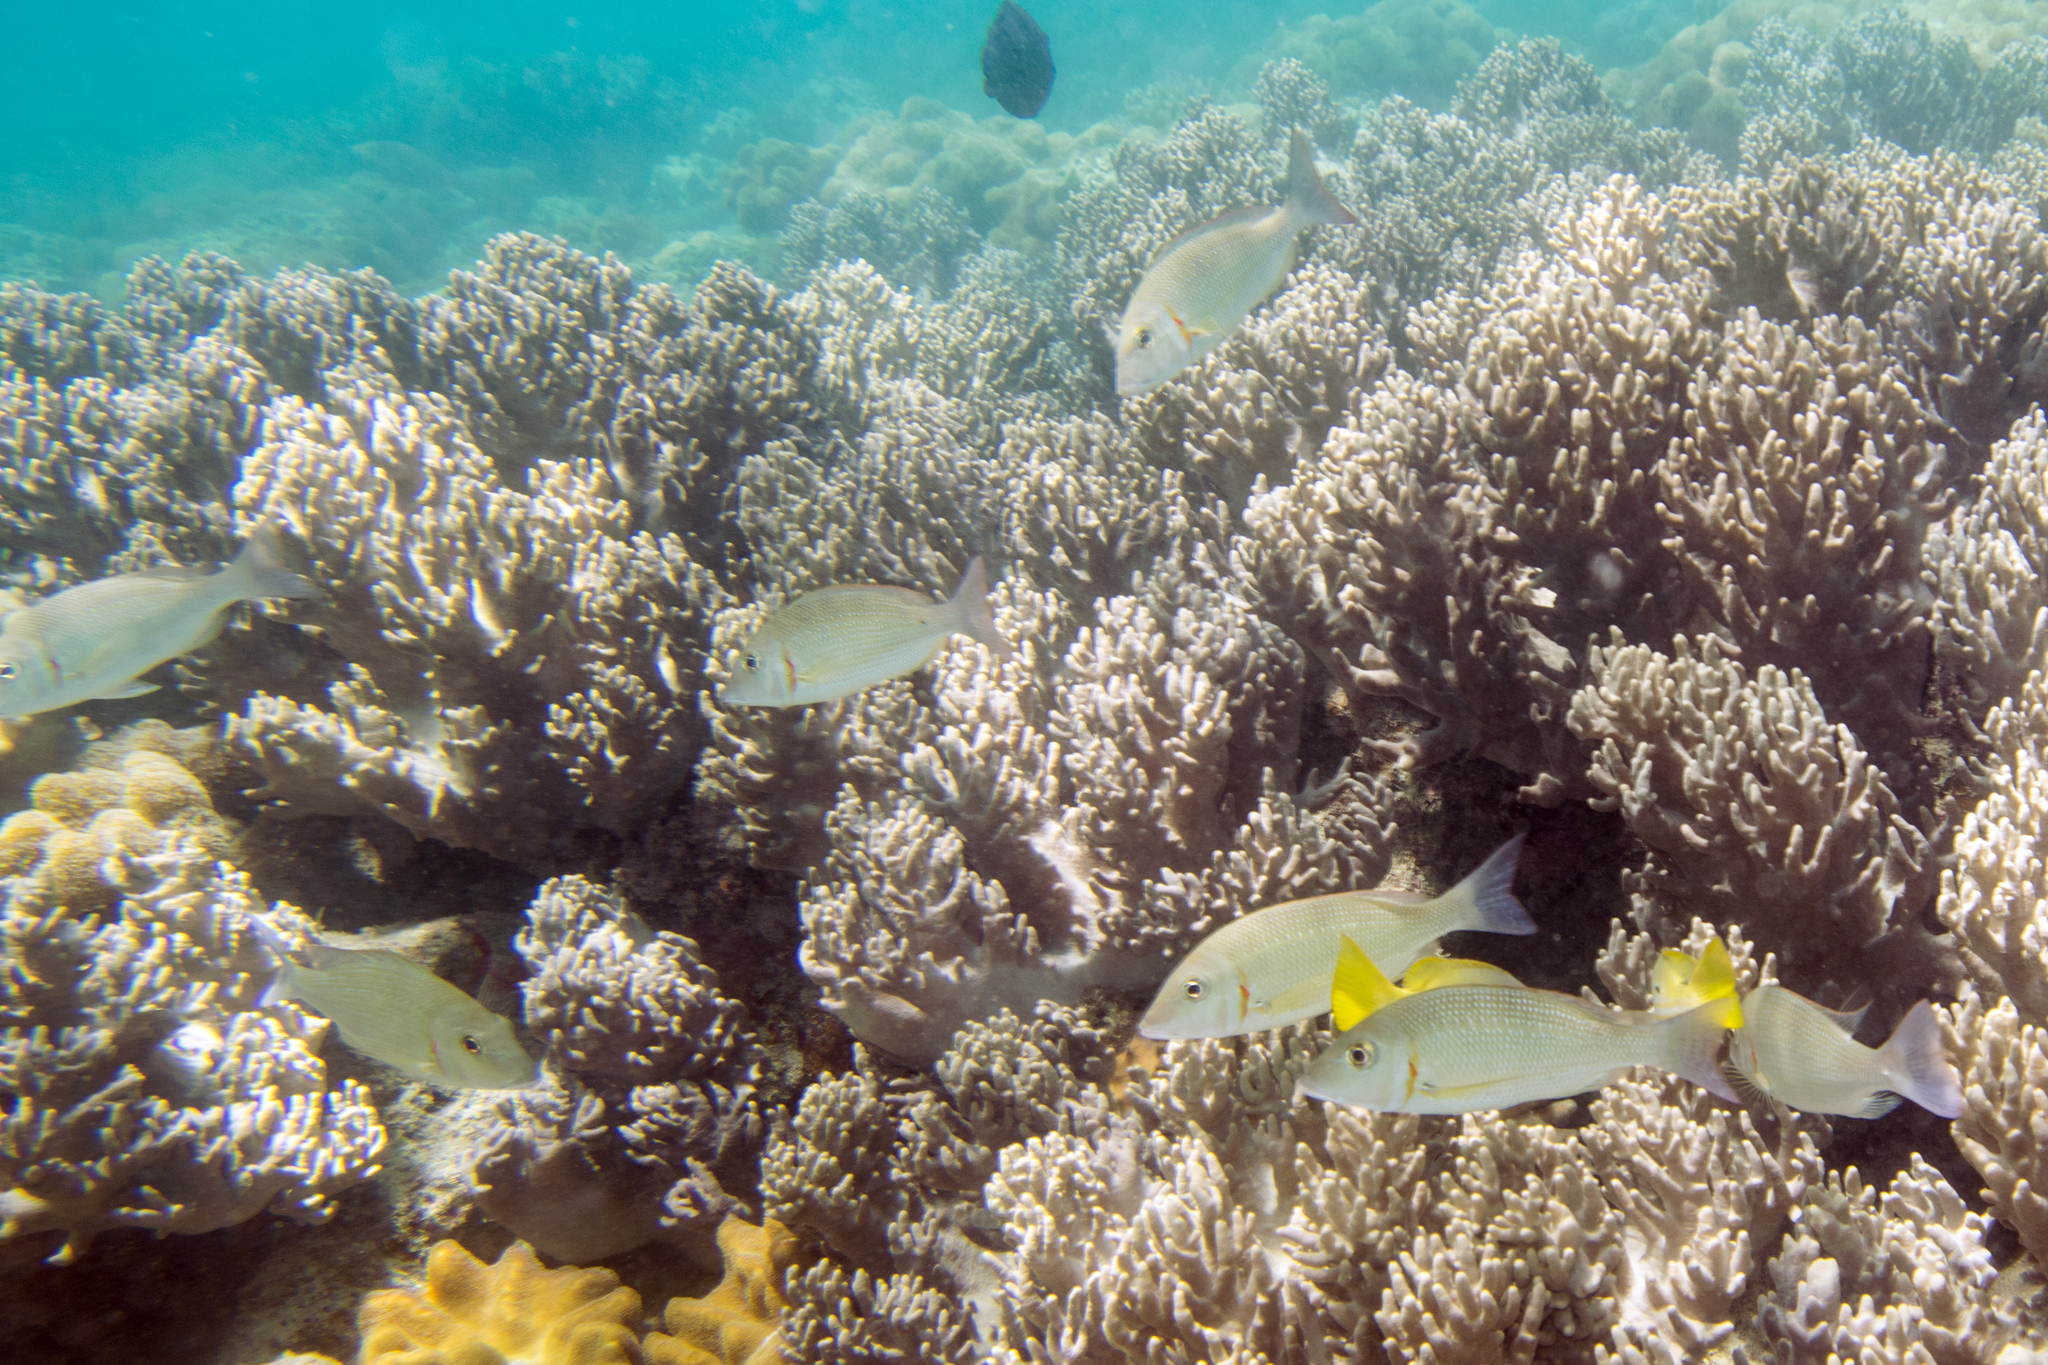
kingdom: Animalia
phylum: Chordata
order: Perciformes
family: Lethrinidae
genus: Lethrinus
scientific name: Lethrinus lentjan
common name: Redspot emperor
